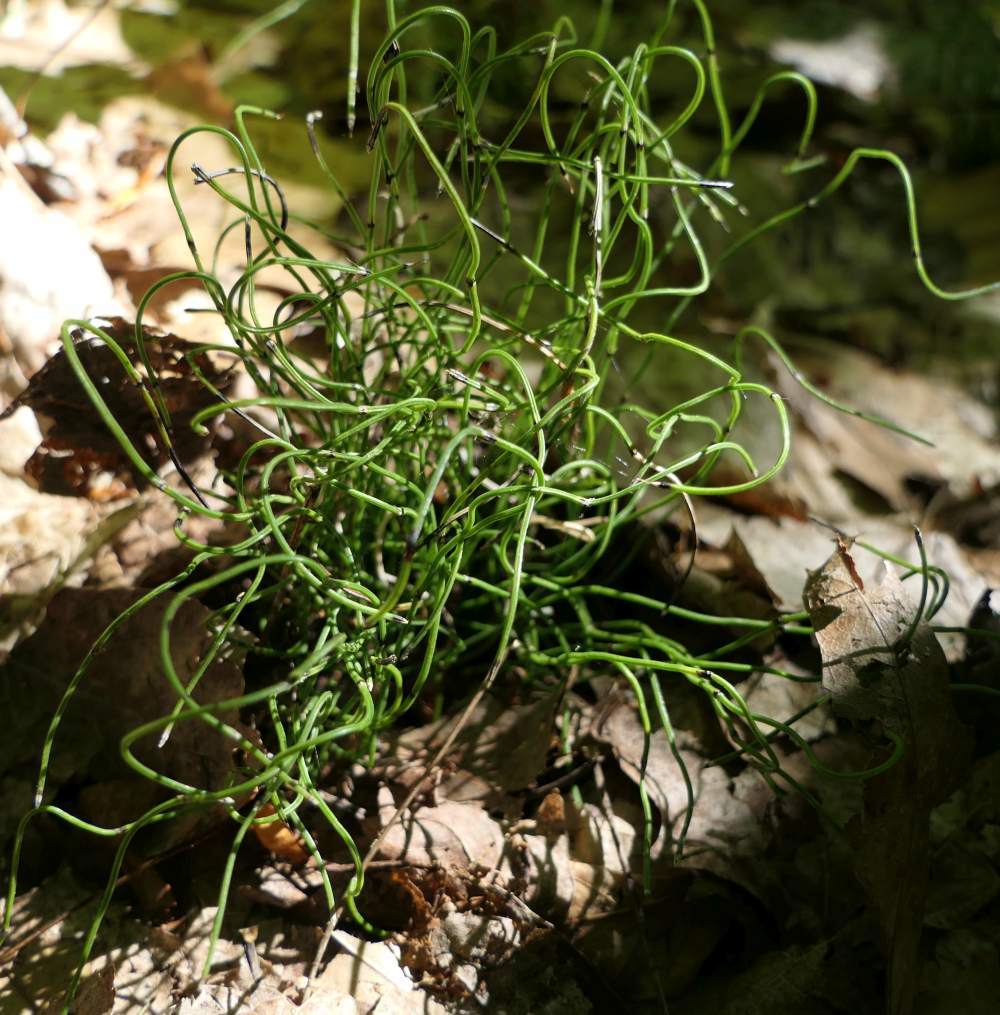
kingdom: Plantae
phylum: Tracheophyta
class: Polypodiopsida
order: Equisetales
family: Equisetaceae
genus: Equisetum
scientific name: Equisetum scirpoides
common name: Delicate horsetail
